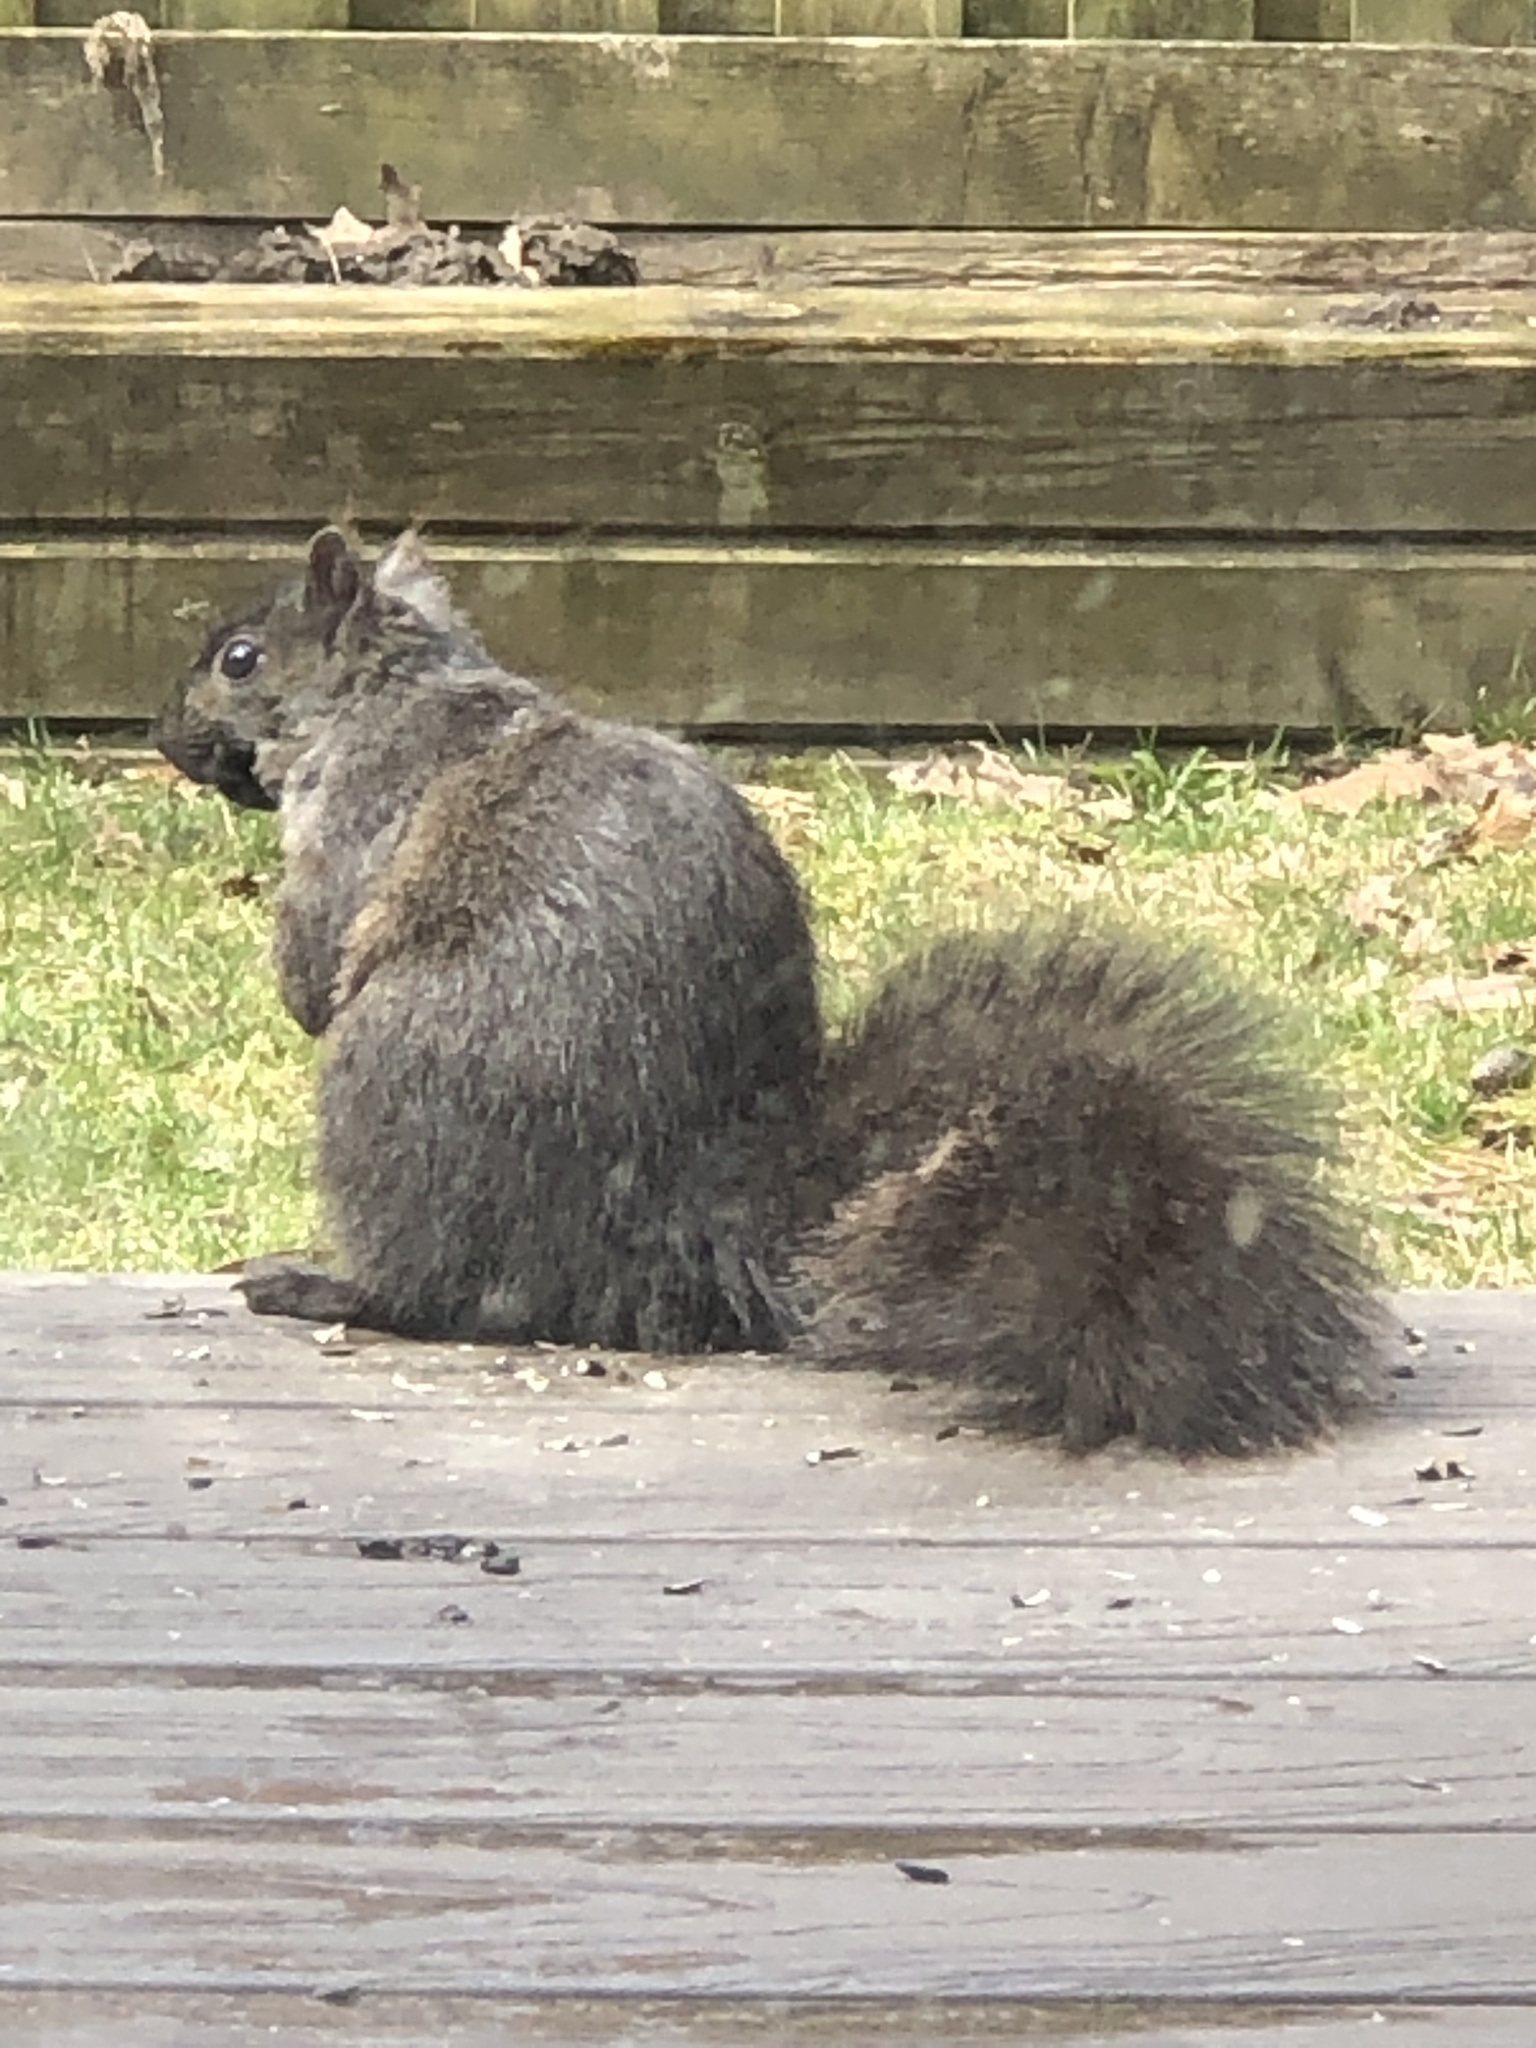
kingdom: Animalia
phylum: Chordata
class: Mammalia
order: Rodentia
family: Sciuridae
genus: Sciurus
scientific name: Sciurus carolinensis
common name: Eastern gray squirrel
